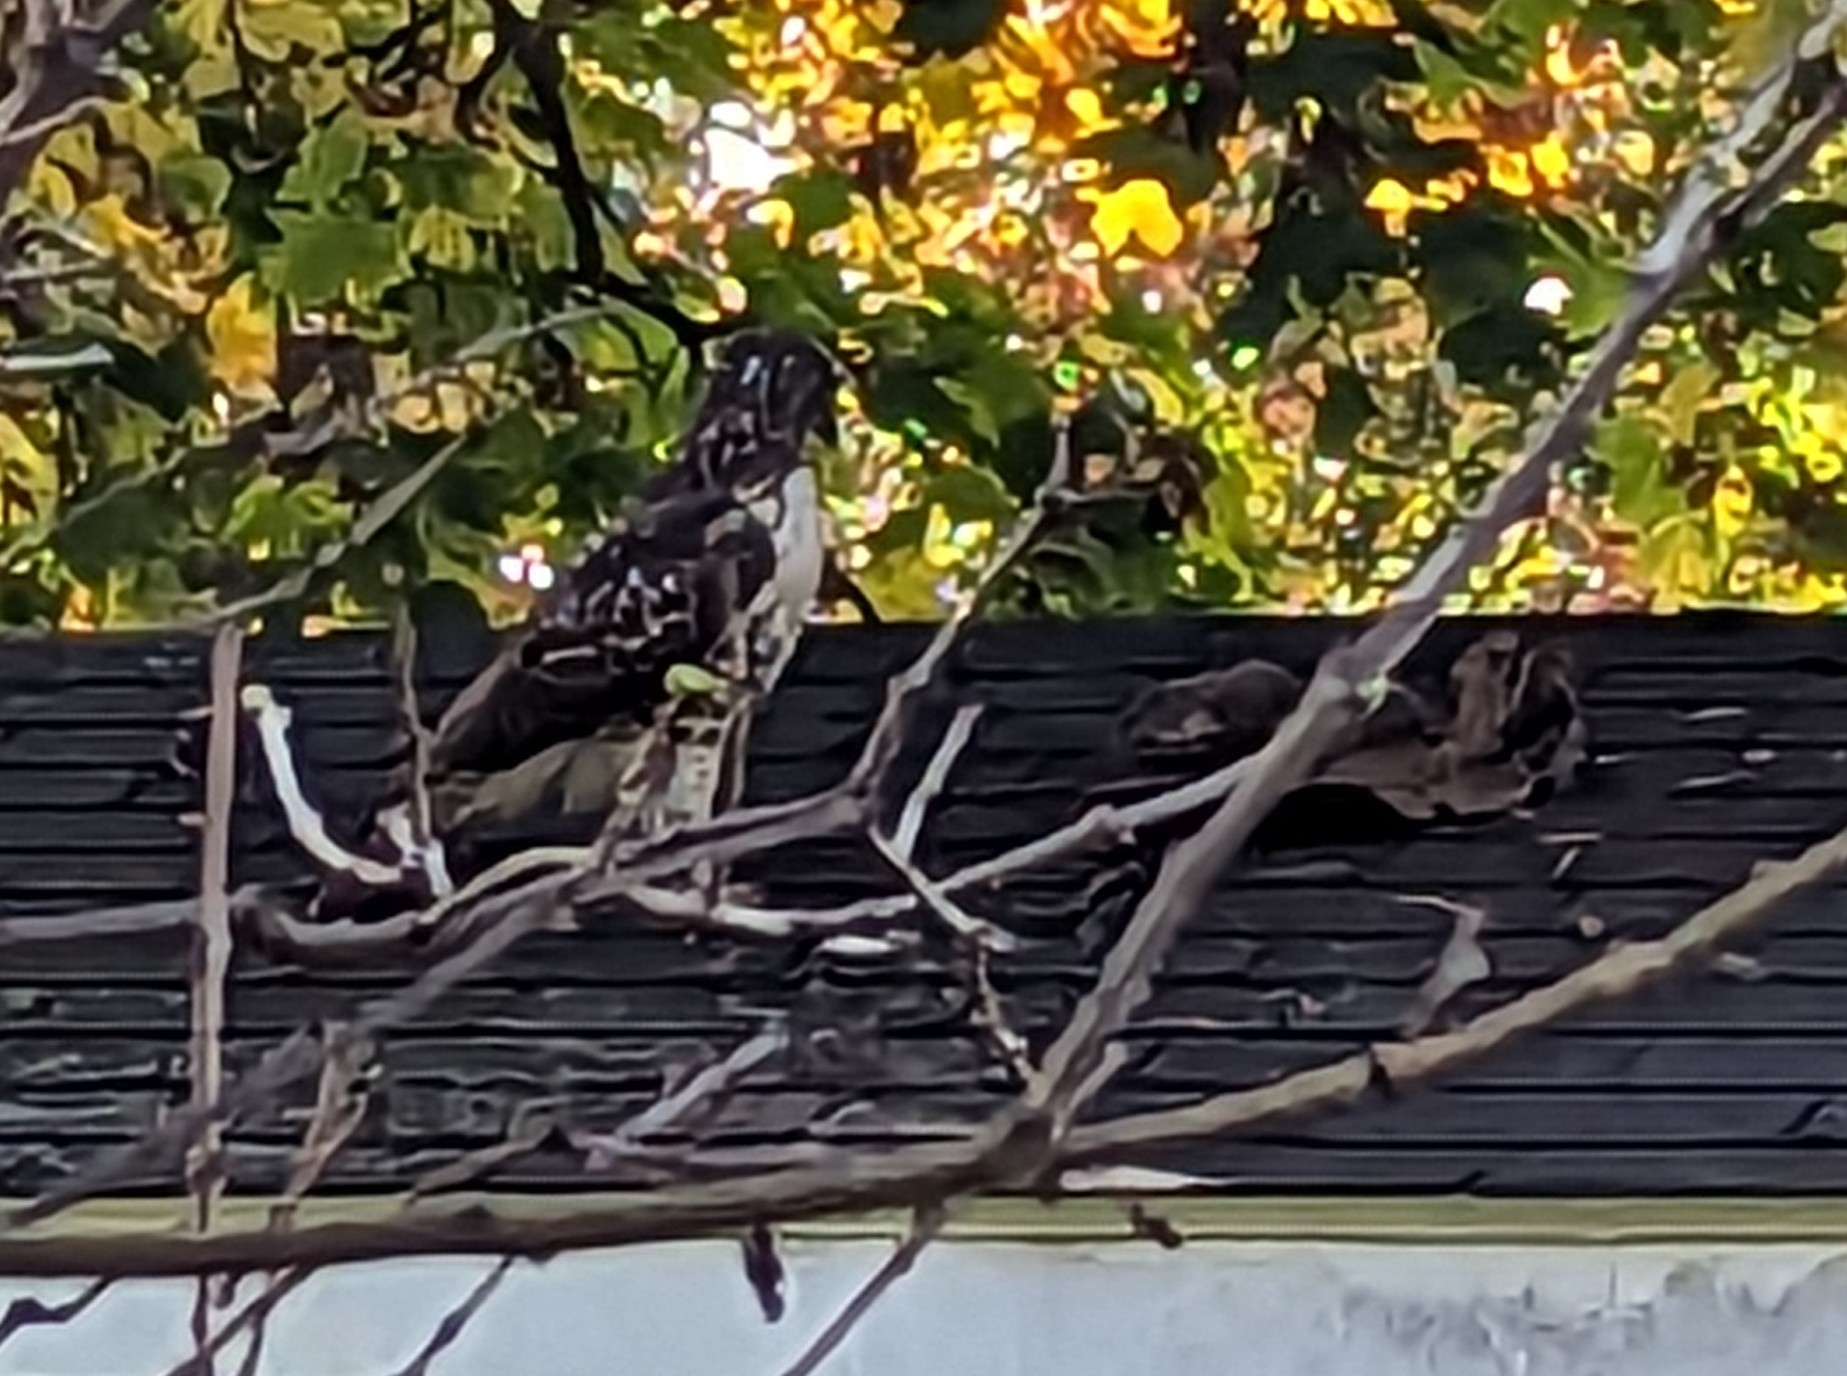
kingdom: Animalia
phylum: Chordata
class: Aves
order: Accipitriformes
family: Accipitridae
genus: Buteo
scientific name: Buteo jamaicensis
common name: Red-tailed hawk
